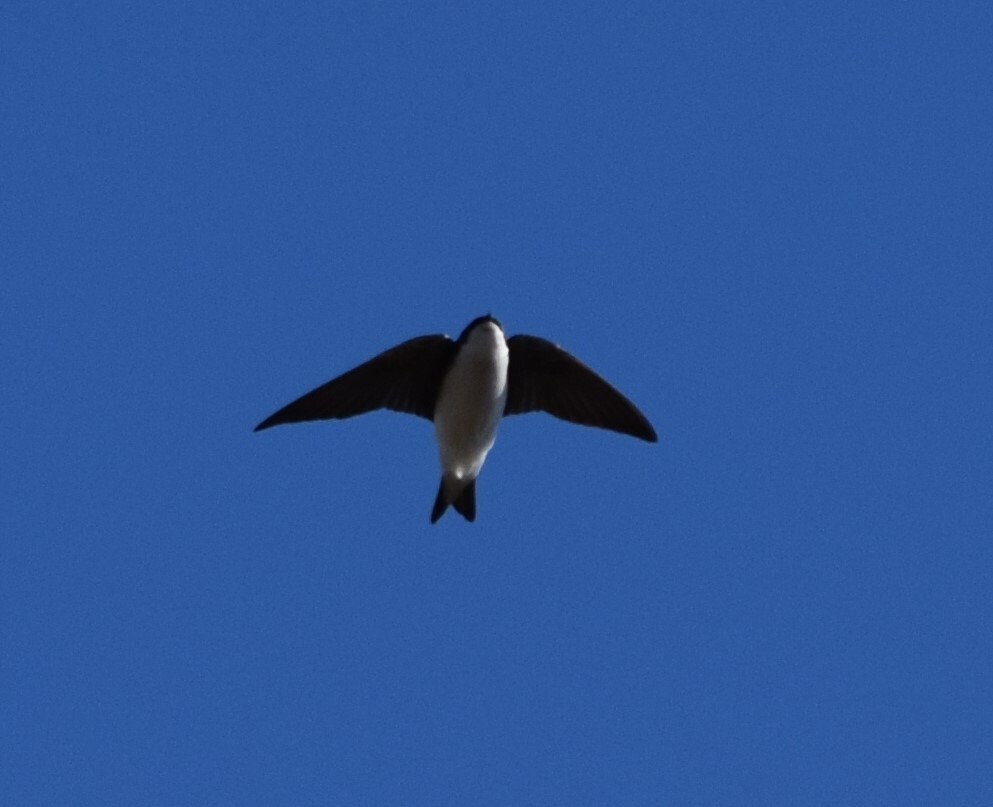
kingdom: Animalia
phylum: Chordata
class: Aves
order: Passeriformes
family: Hirundinidae
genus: Tachycineta
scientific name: Tachycineta bicolor
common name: Tree swallow
